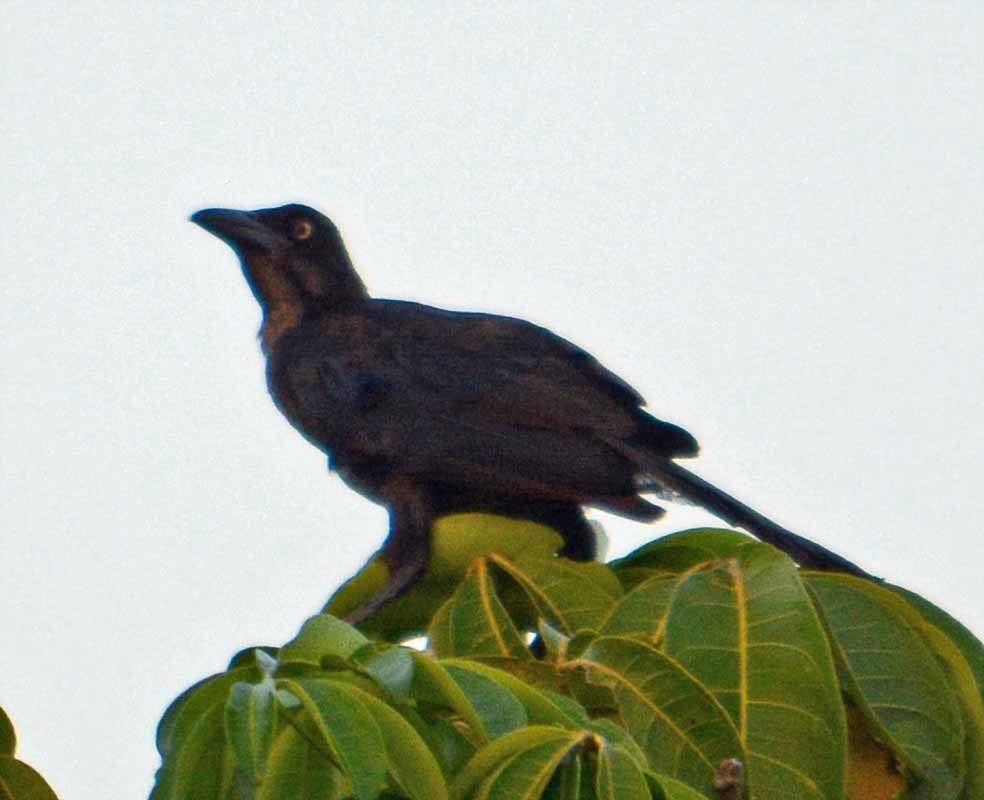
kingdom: Animalia
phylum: Chordata
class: Aves
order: Passeriformes
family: Icteridae
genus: Quiscalus
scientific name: Quiscalus mexicanus
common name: Great-tailed grackle
